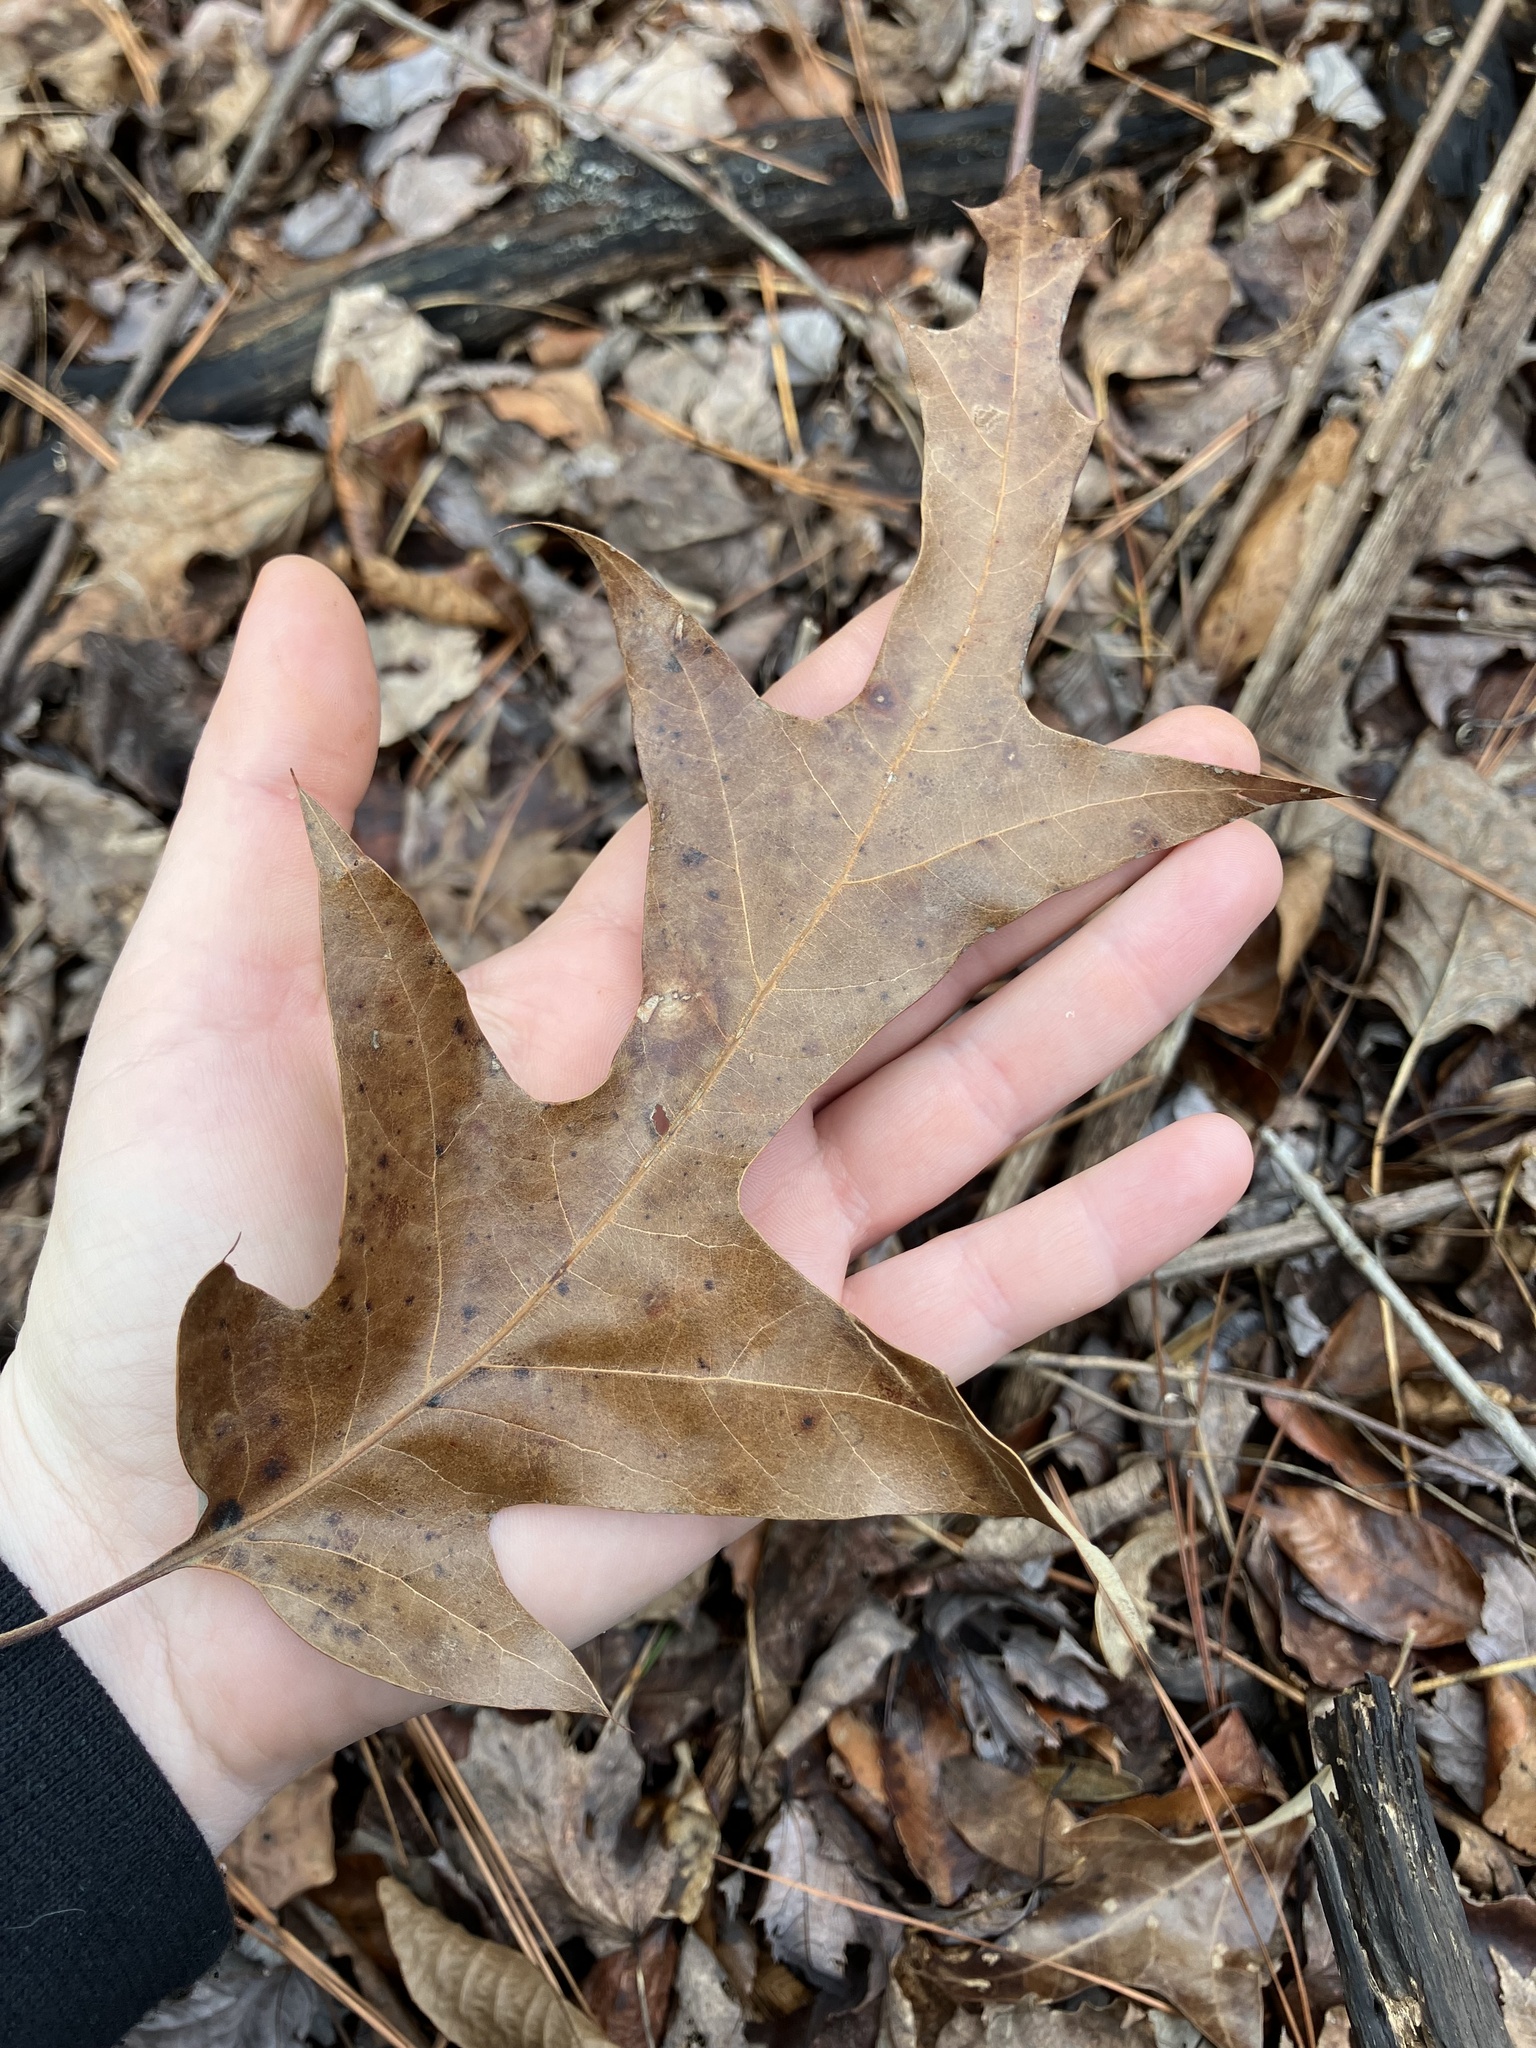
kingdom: Plantae
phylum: Tracheophyta
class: Magnoliopsida
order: Fagales
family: Fagaceae
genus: Quercus
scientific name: Quercus falcata
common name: Southern red oak
